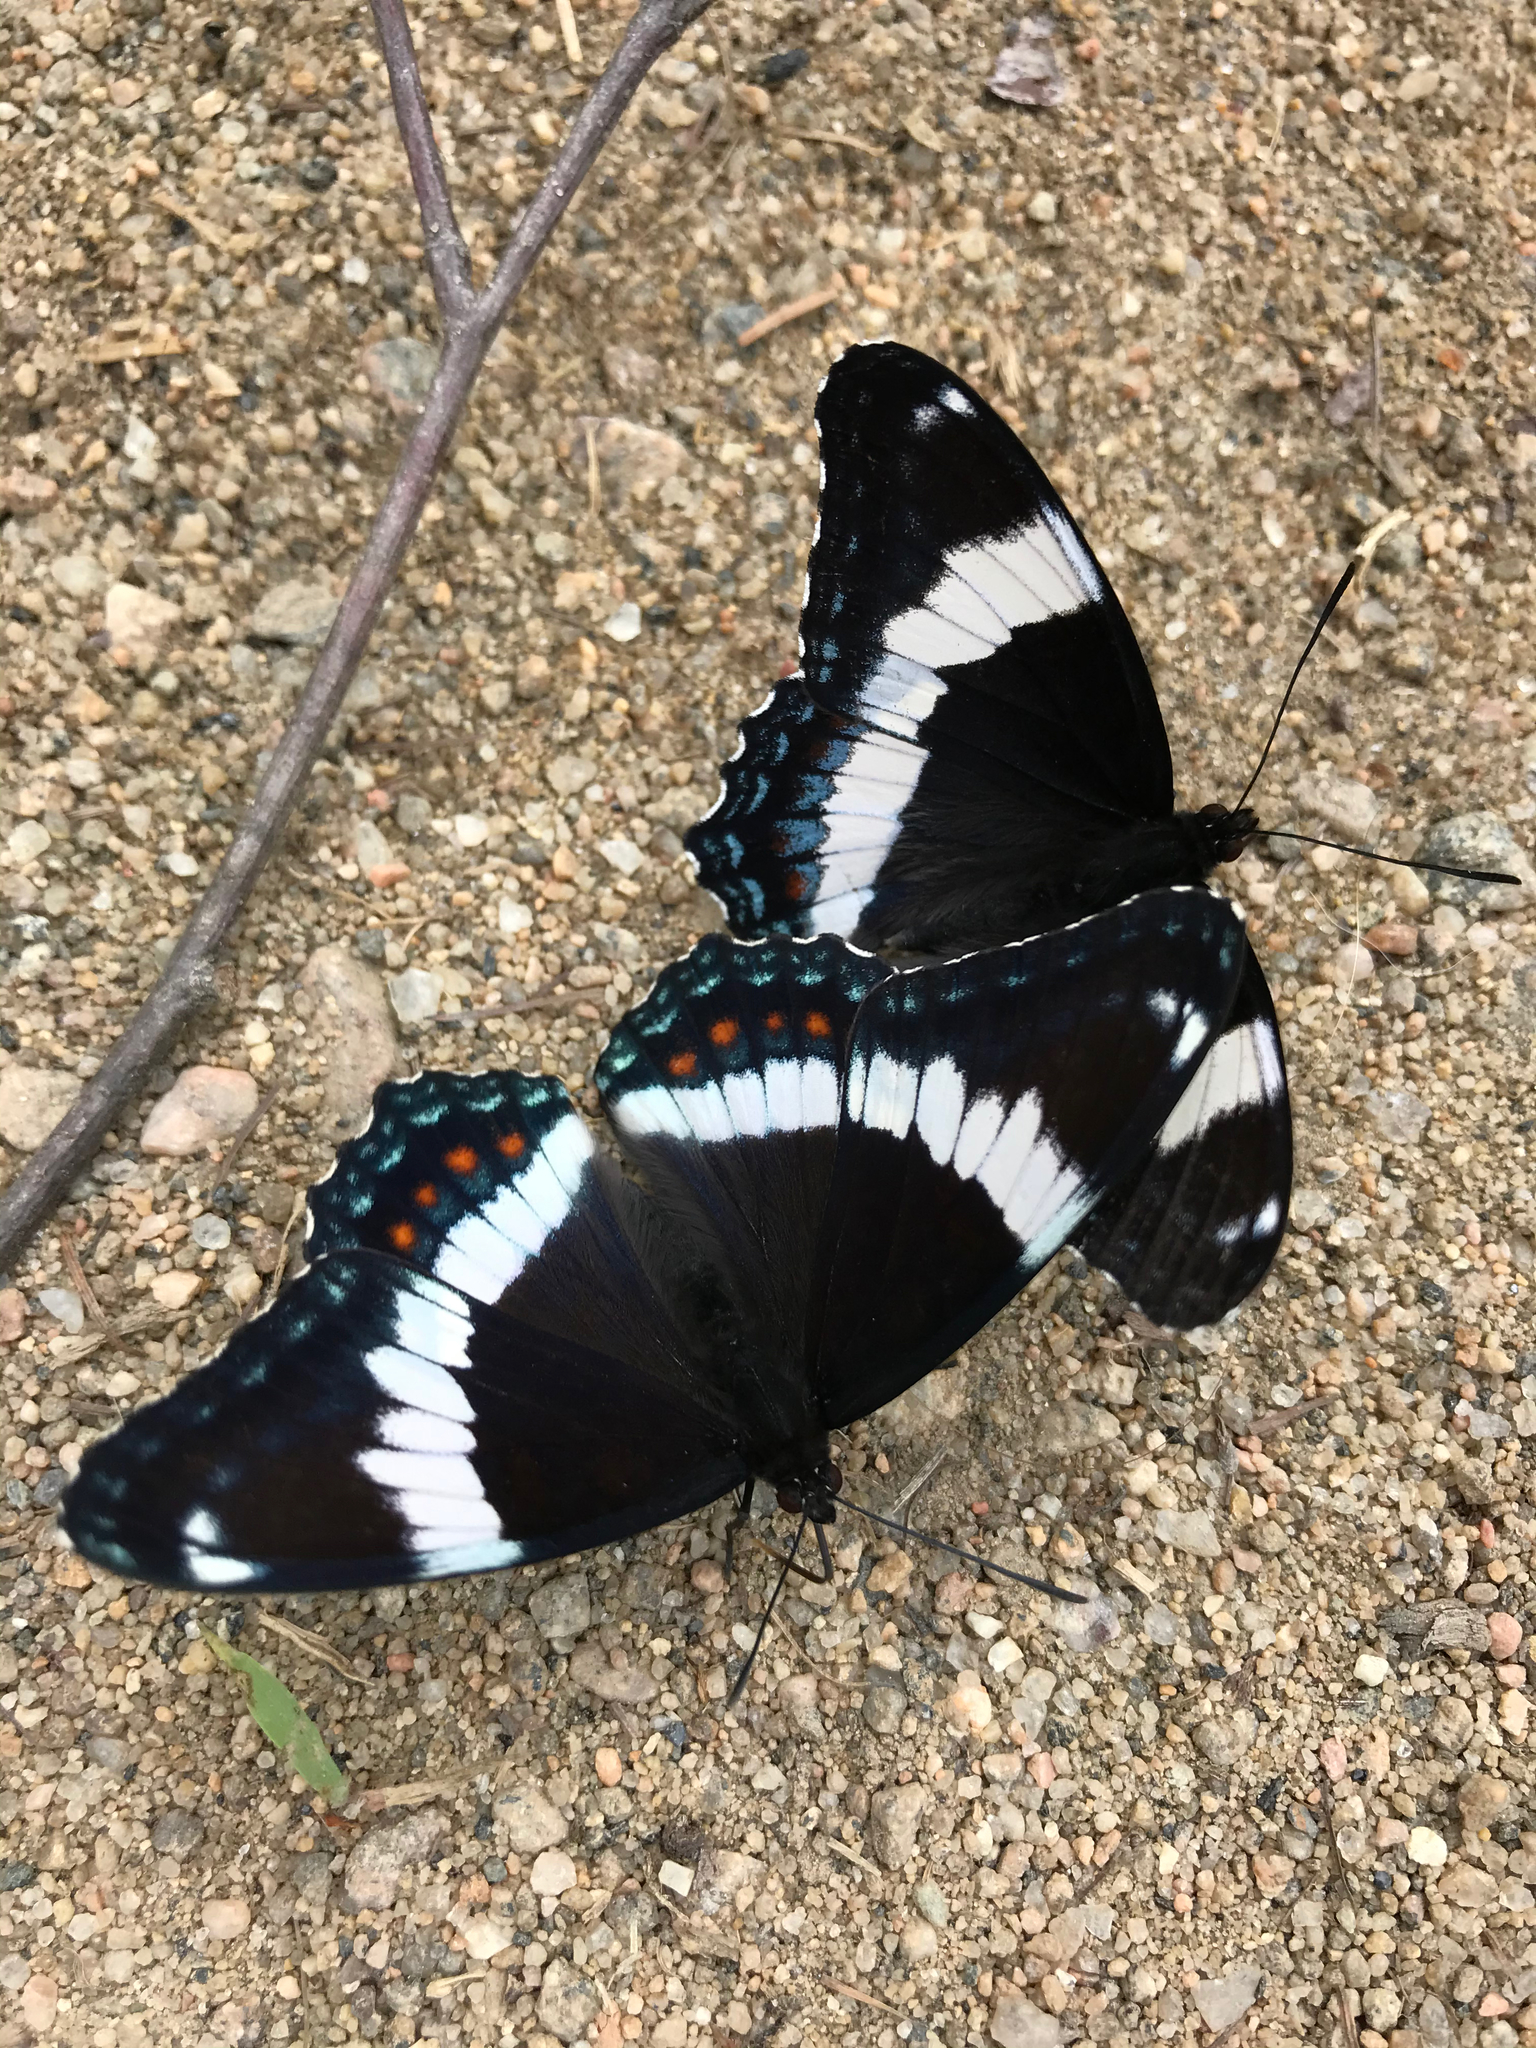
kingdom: Animalia
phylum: Arthropoda
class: Insecta
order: Lepidoptera
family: Nymphalidae
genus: Limenitis
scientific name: Limenitis arthemis
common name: Red-spotted admiral
